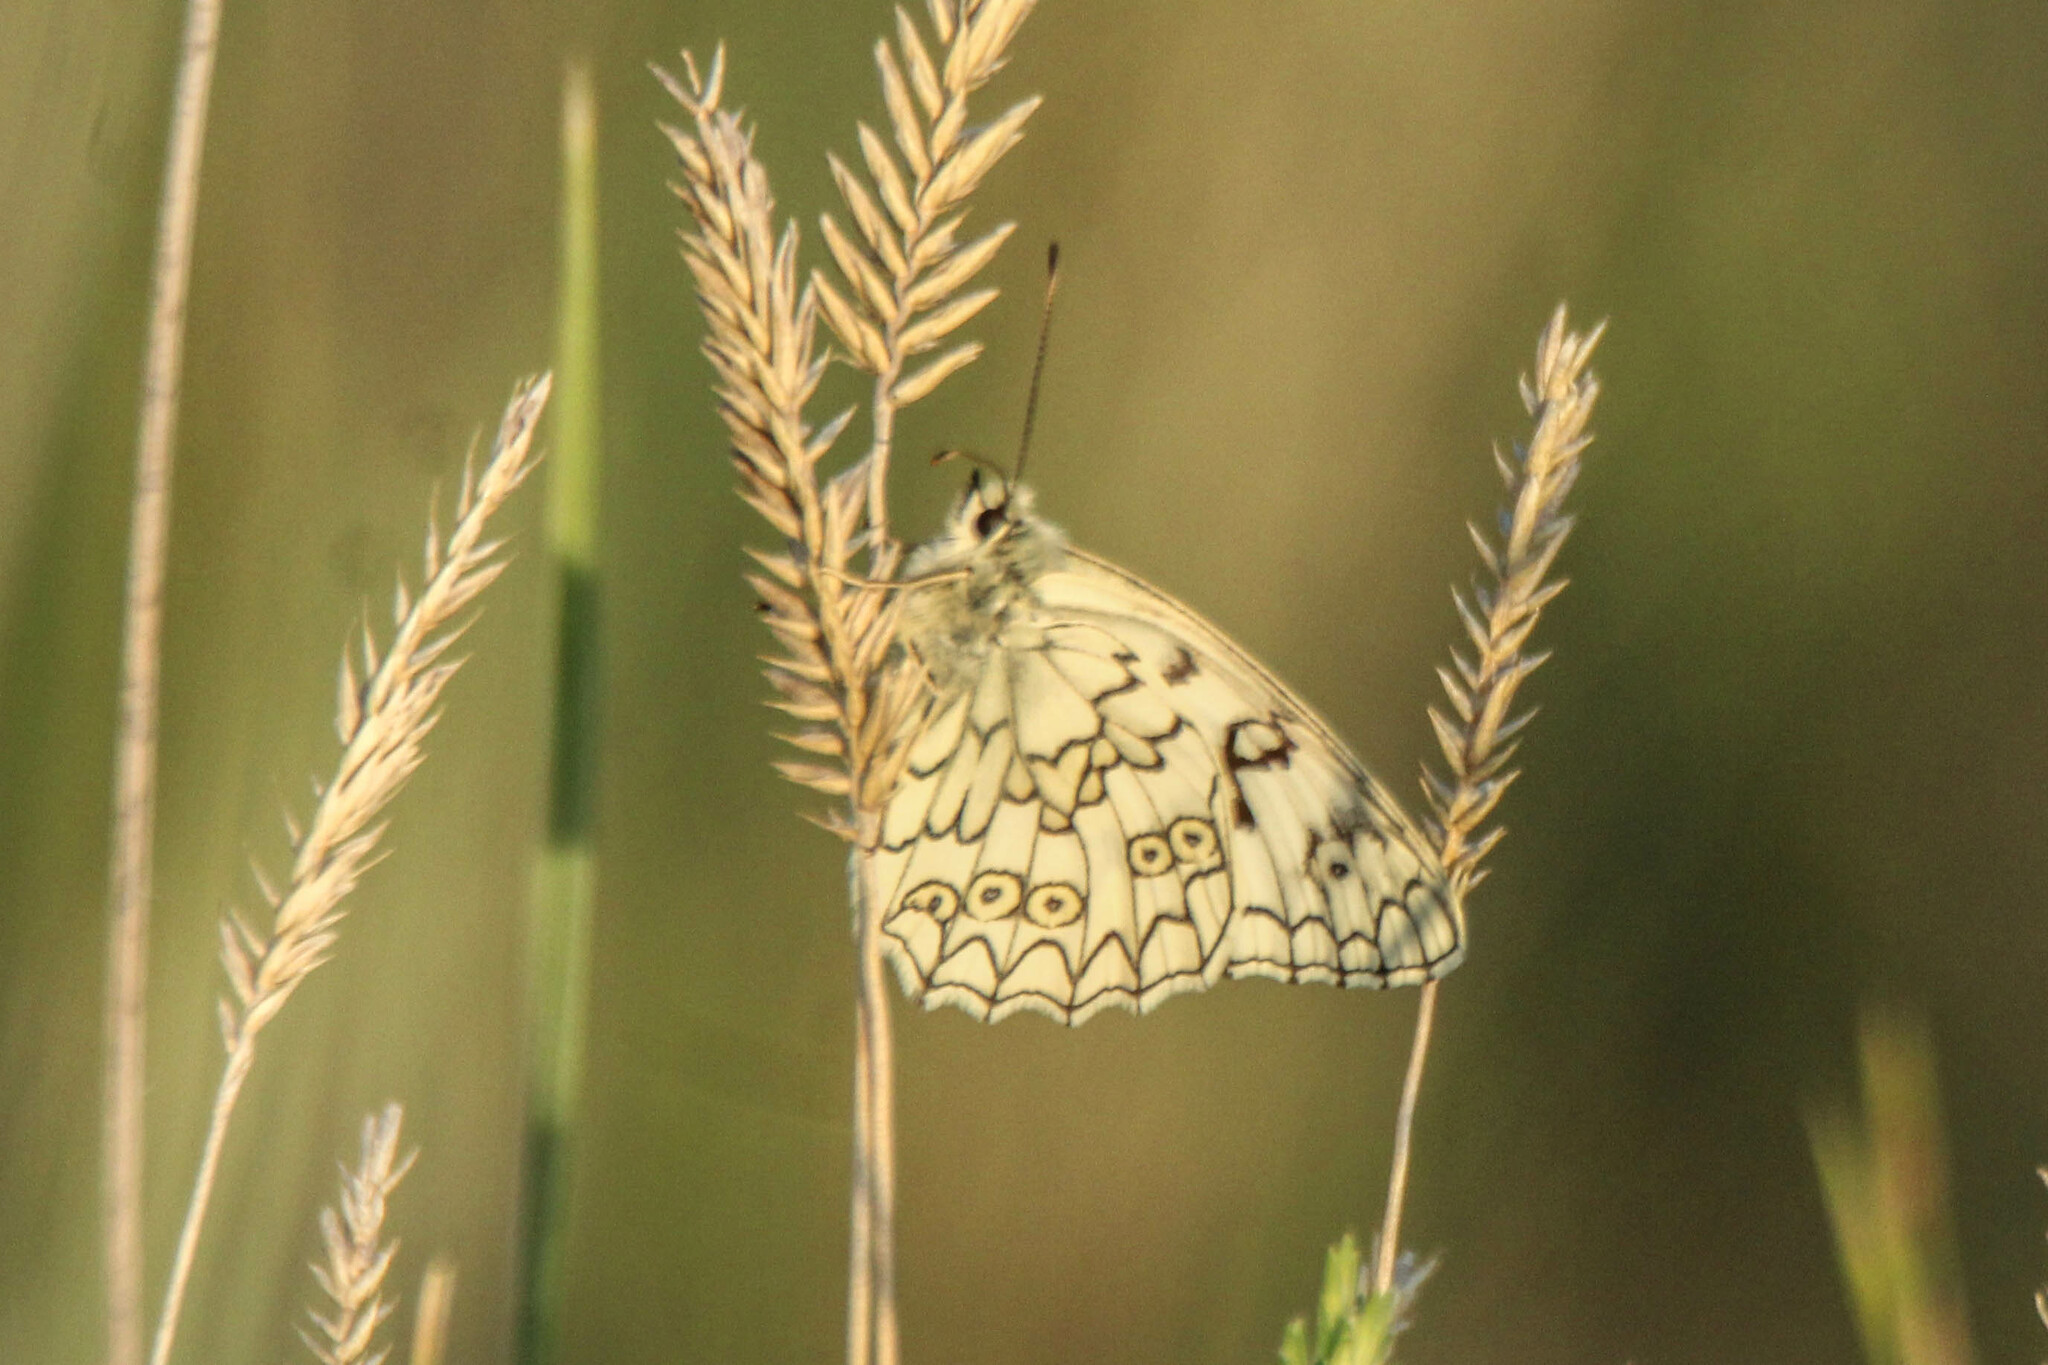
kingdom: Animalia
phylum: Arthropoda
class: Insecta
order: Lepidoptera
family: Nymphalidae
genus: Melanargia
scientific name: Melanargia japygia
